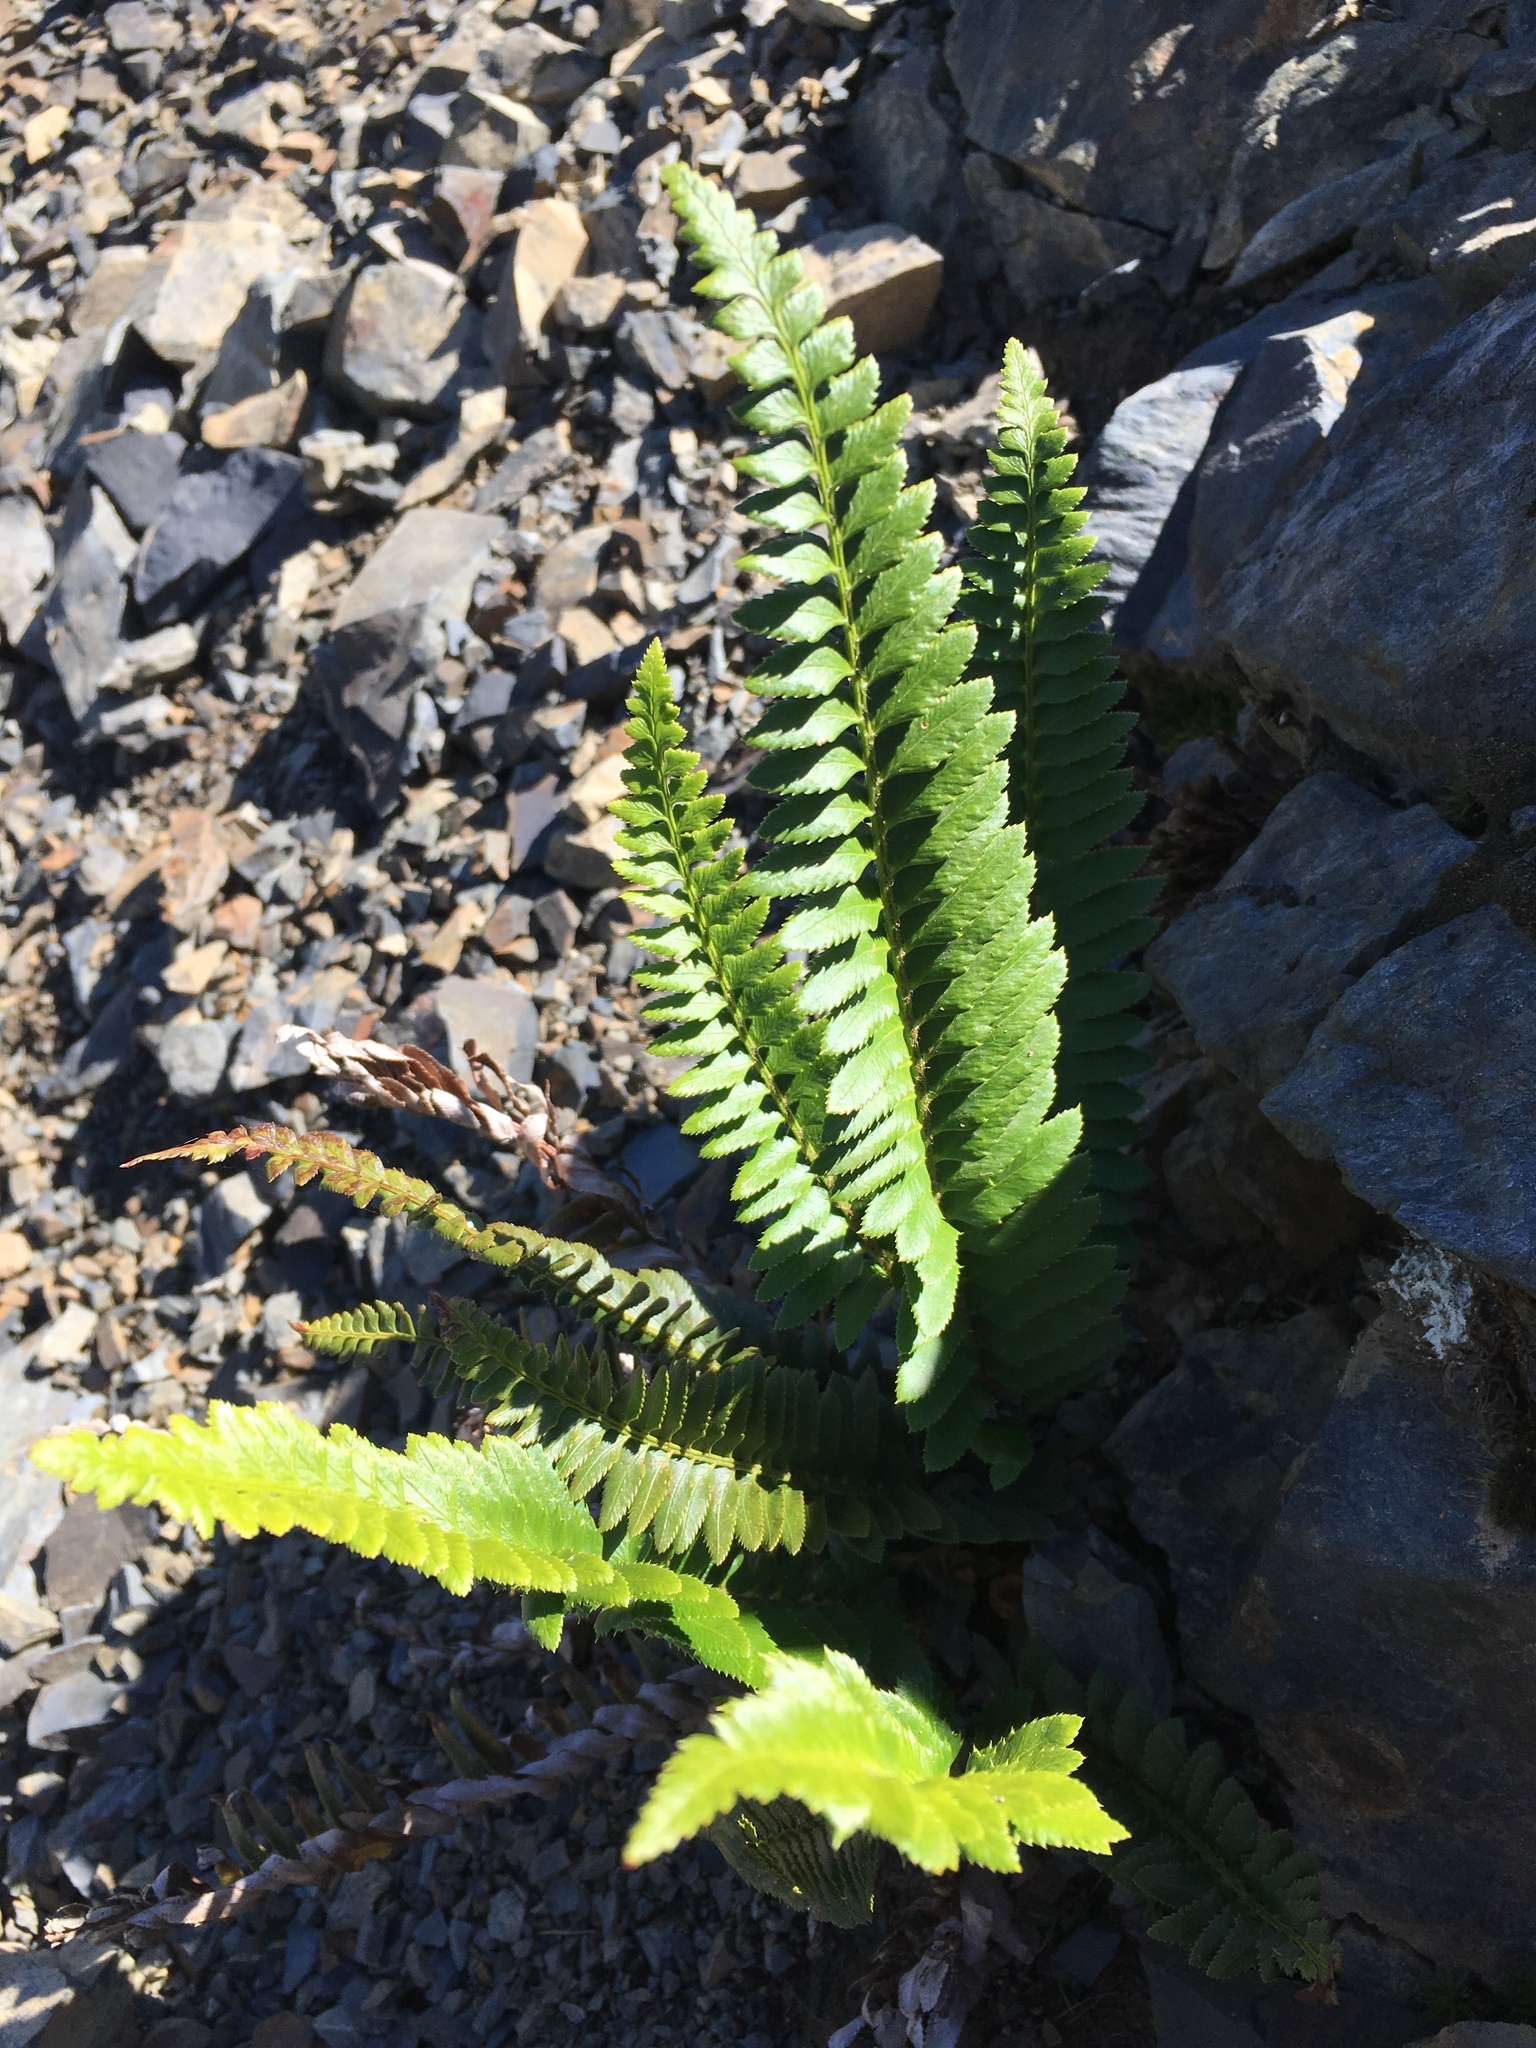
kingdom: Plantae
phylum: Tracheophyta
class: Polypodiopsida
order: Polypodiales
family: Dryopteridaceae
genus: Polystichum
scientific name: Polystichum munitum
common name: Western sword-fern
